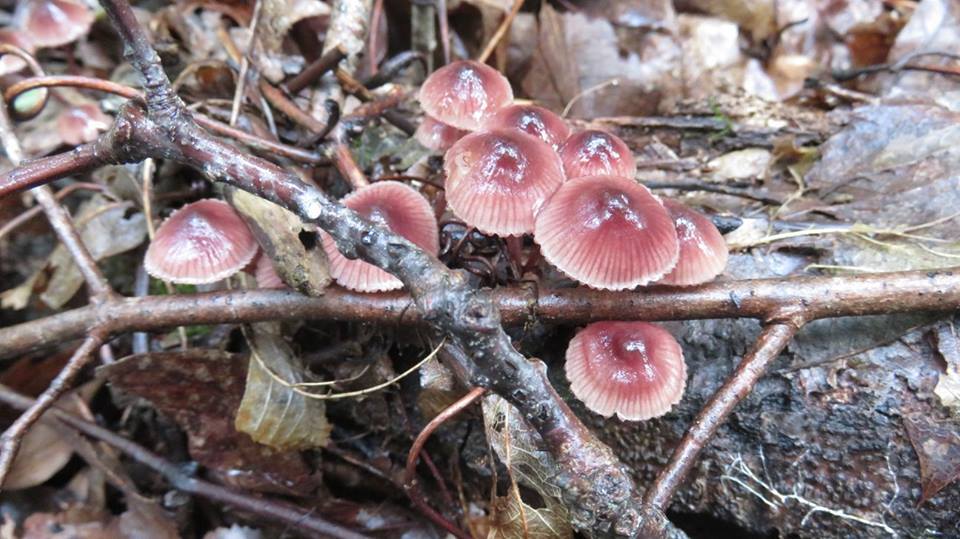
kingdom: Fungi
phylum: Basidiomycota
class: Agaricomycetes
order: Agaricales
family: Mycenaceae
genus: Mycena
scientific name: Mycena haematopus
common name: Burgundydrop bonnet
